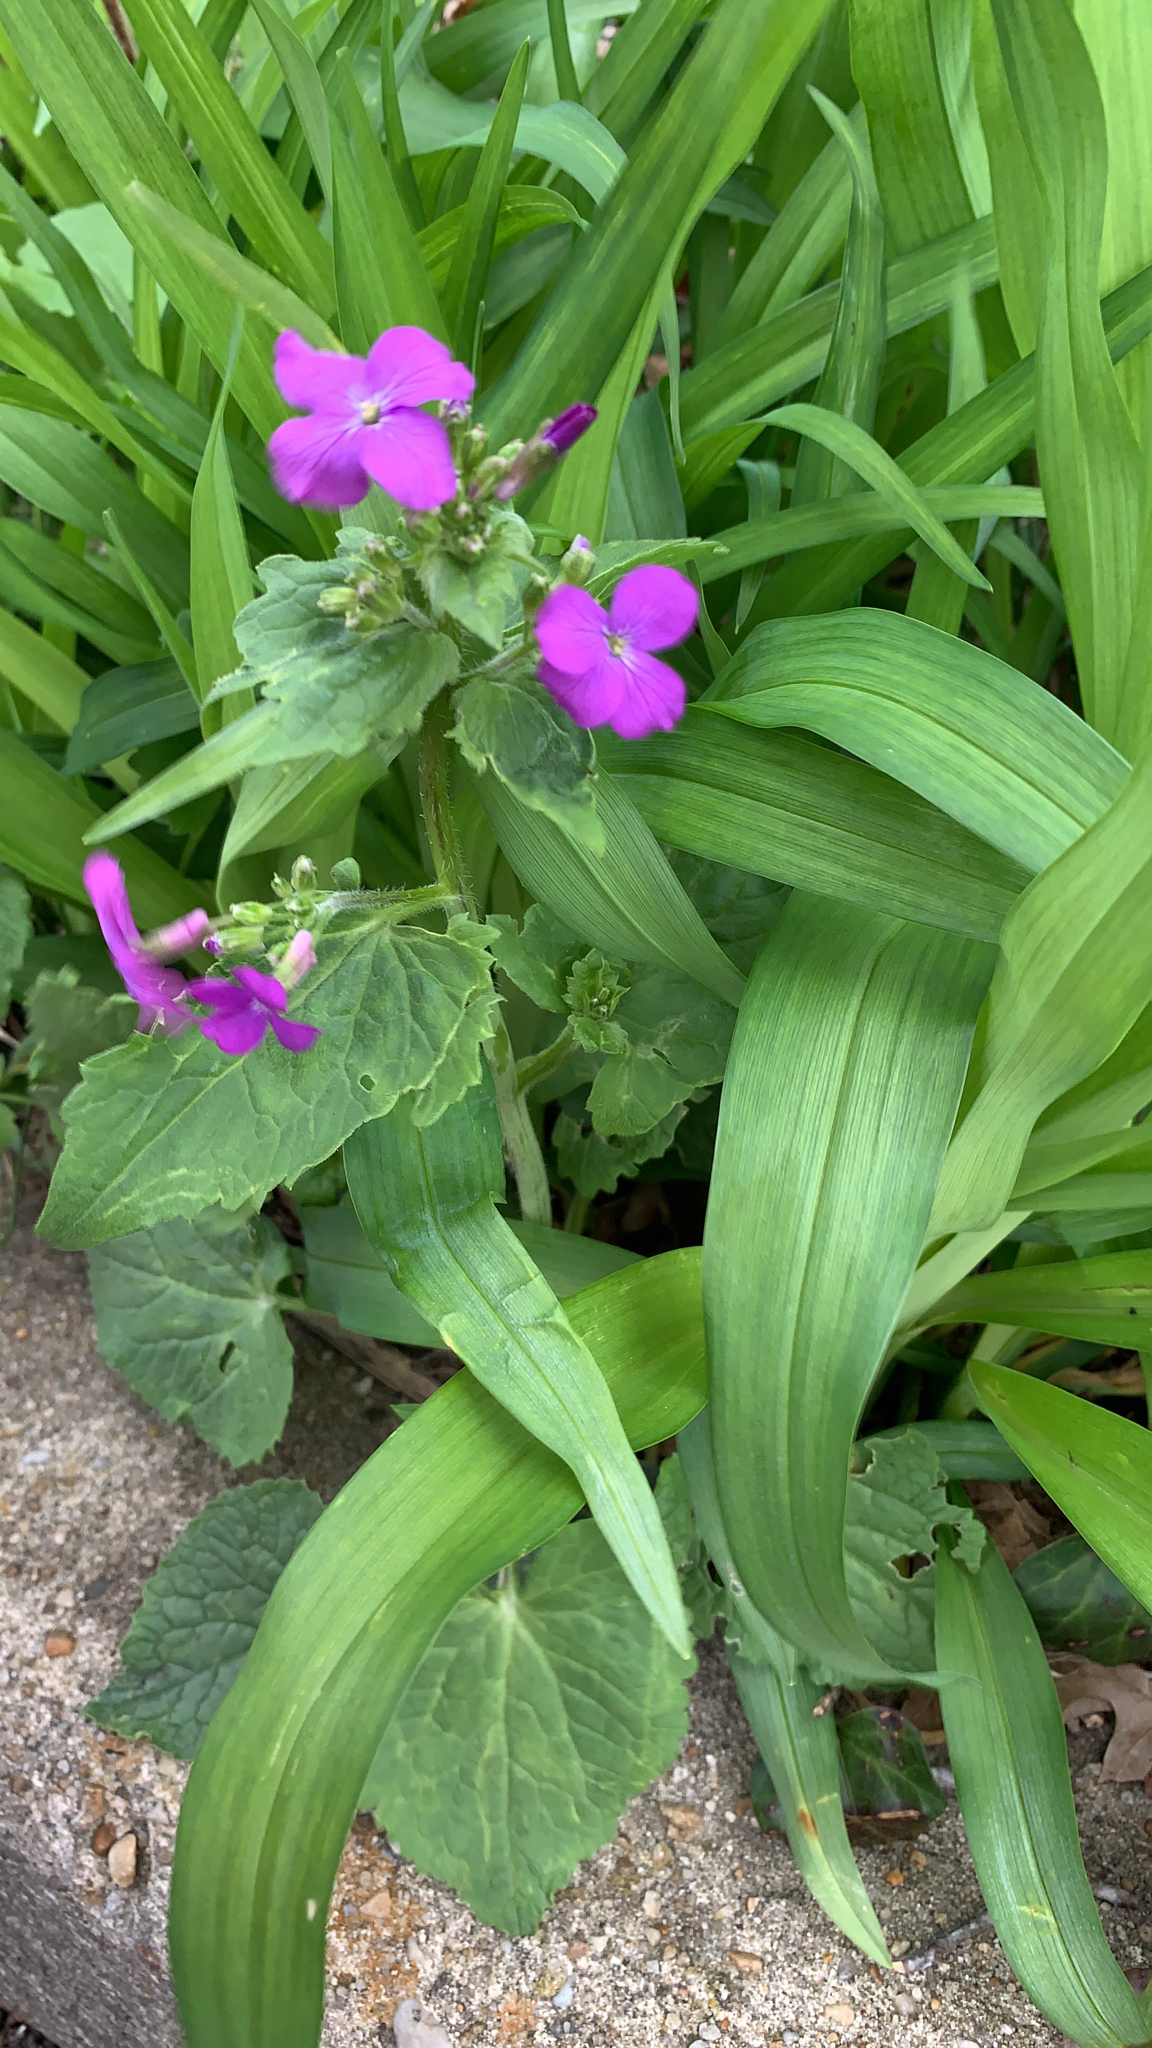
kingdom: Plantae
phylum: Tracheophyta
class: Magnoliopsida
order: Brassicales
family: Brassicaceae
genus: Lunaria
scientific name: Lunaria annua
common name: Honesty
